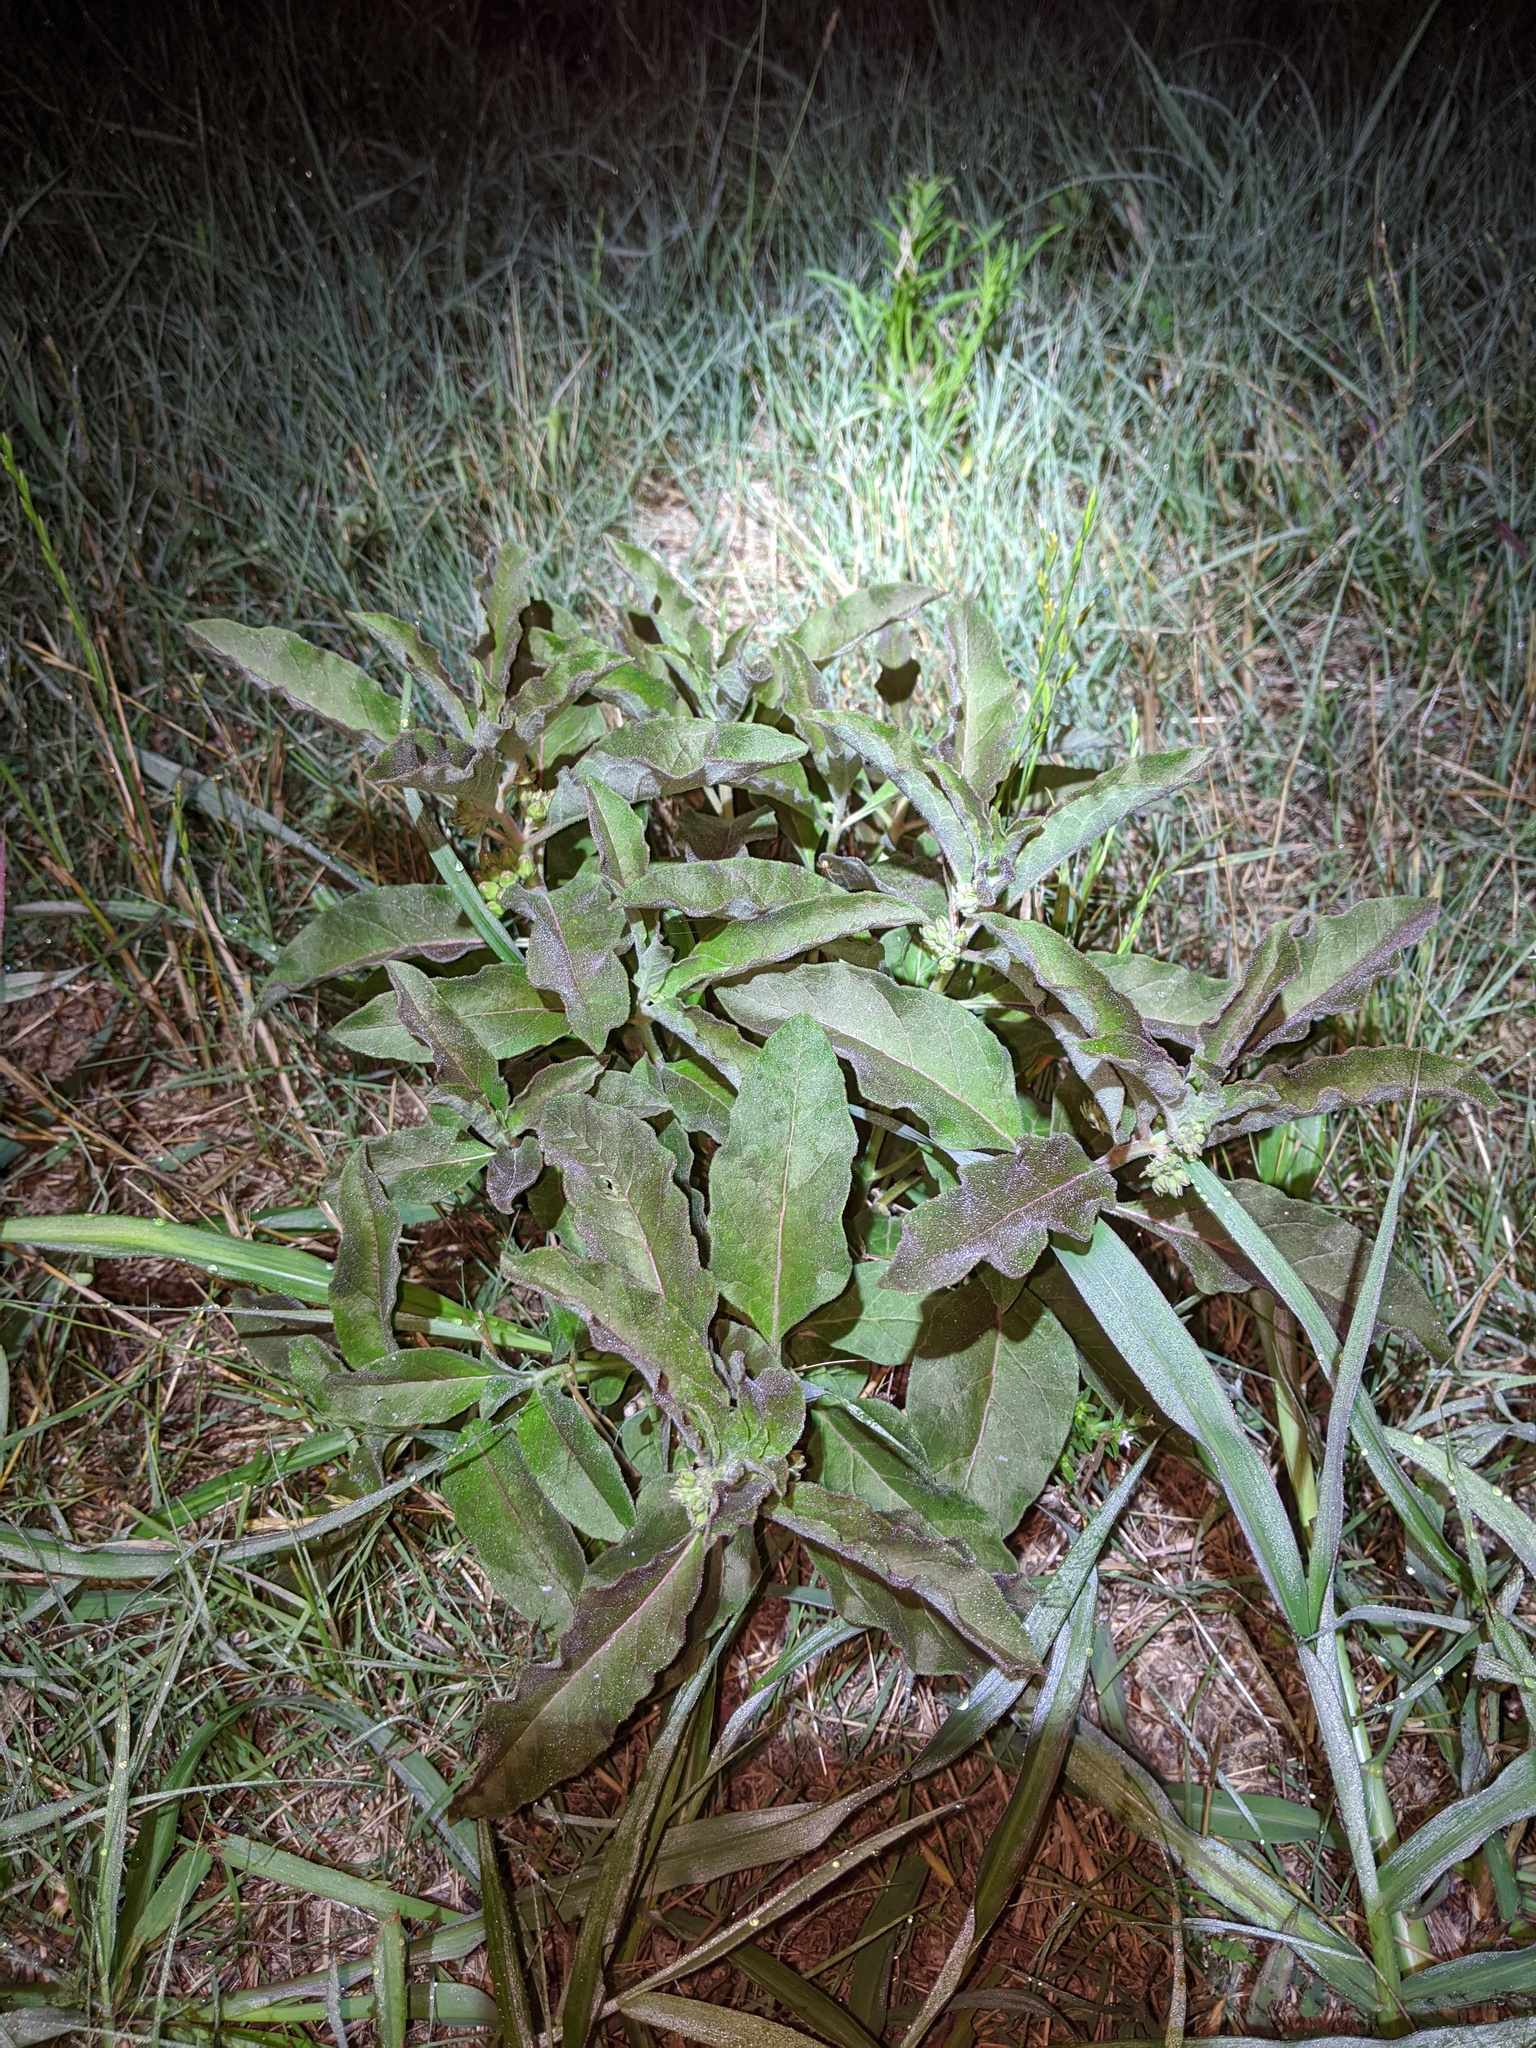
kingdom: Plantae
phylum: Tracheophyta
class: Magnoliopsida
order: Gentianales
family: Apocynaceae
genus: Asclepias
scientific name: Asclepias oenotheroides
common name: Zizotes milkweed
